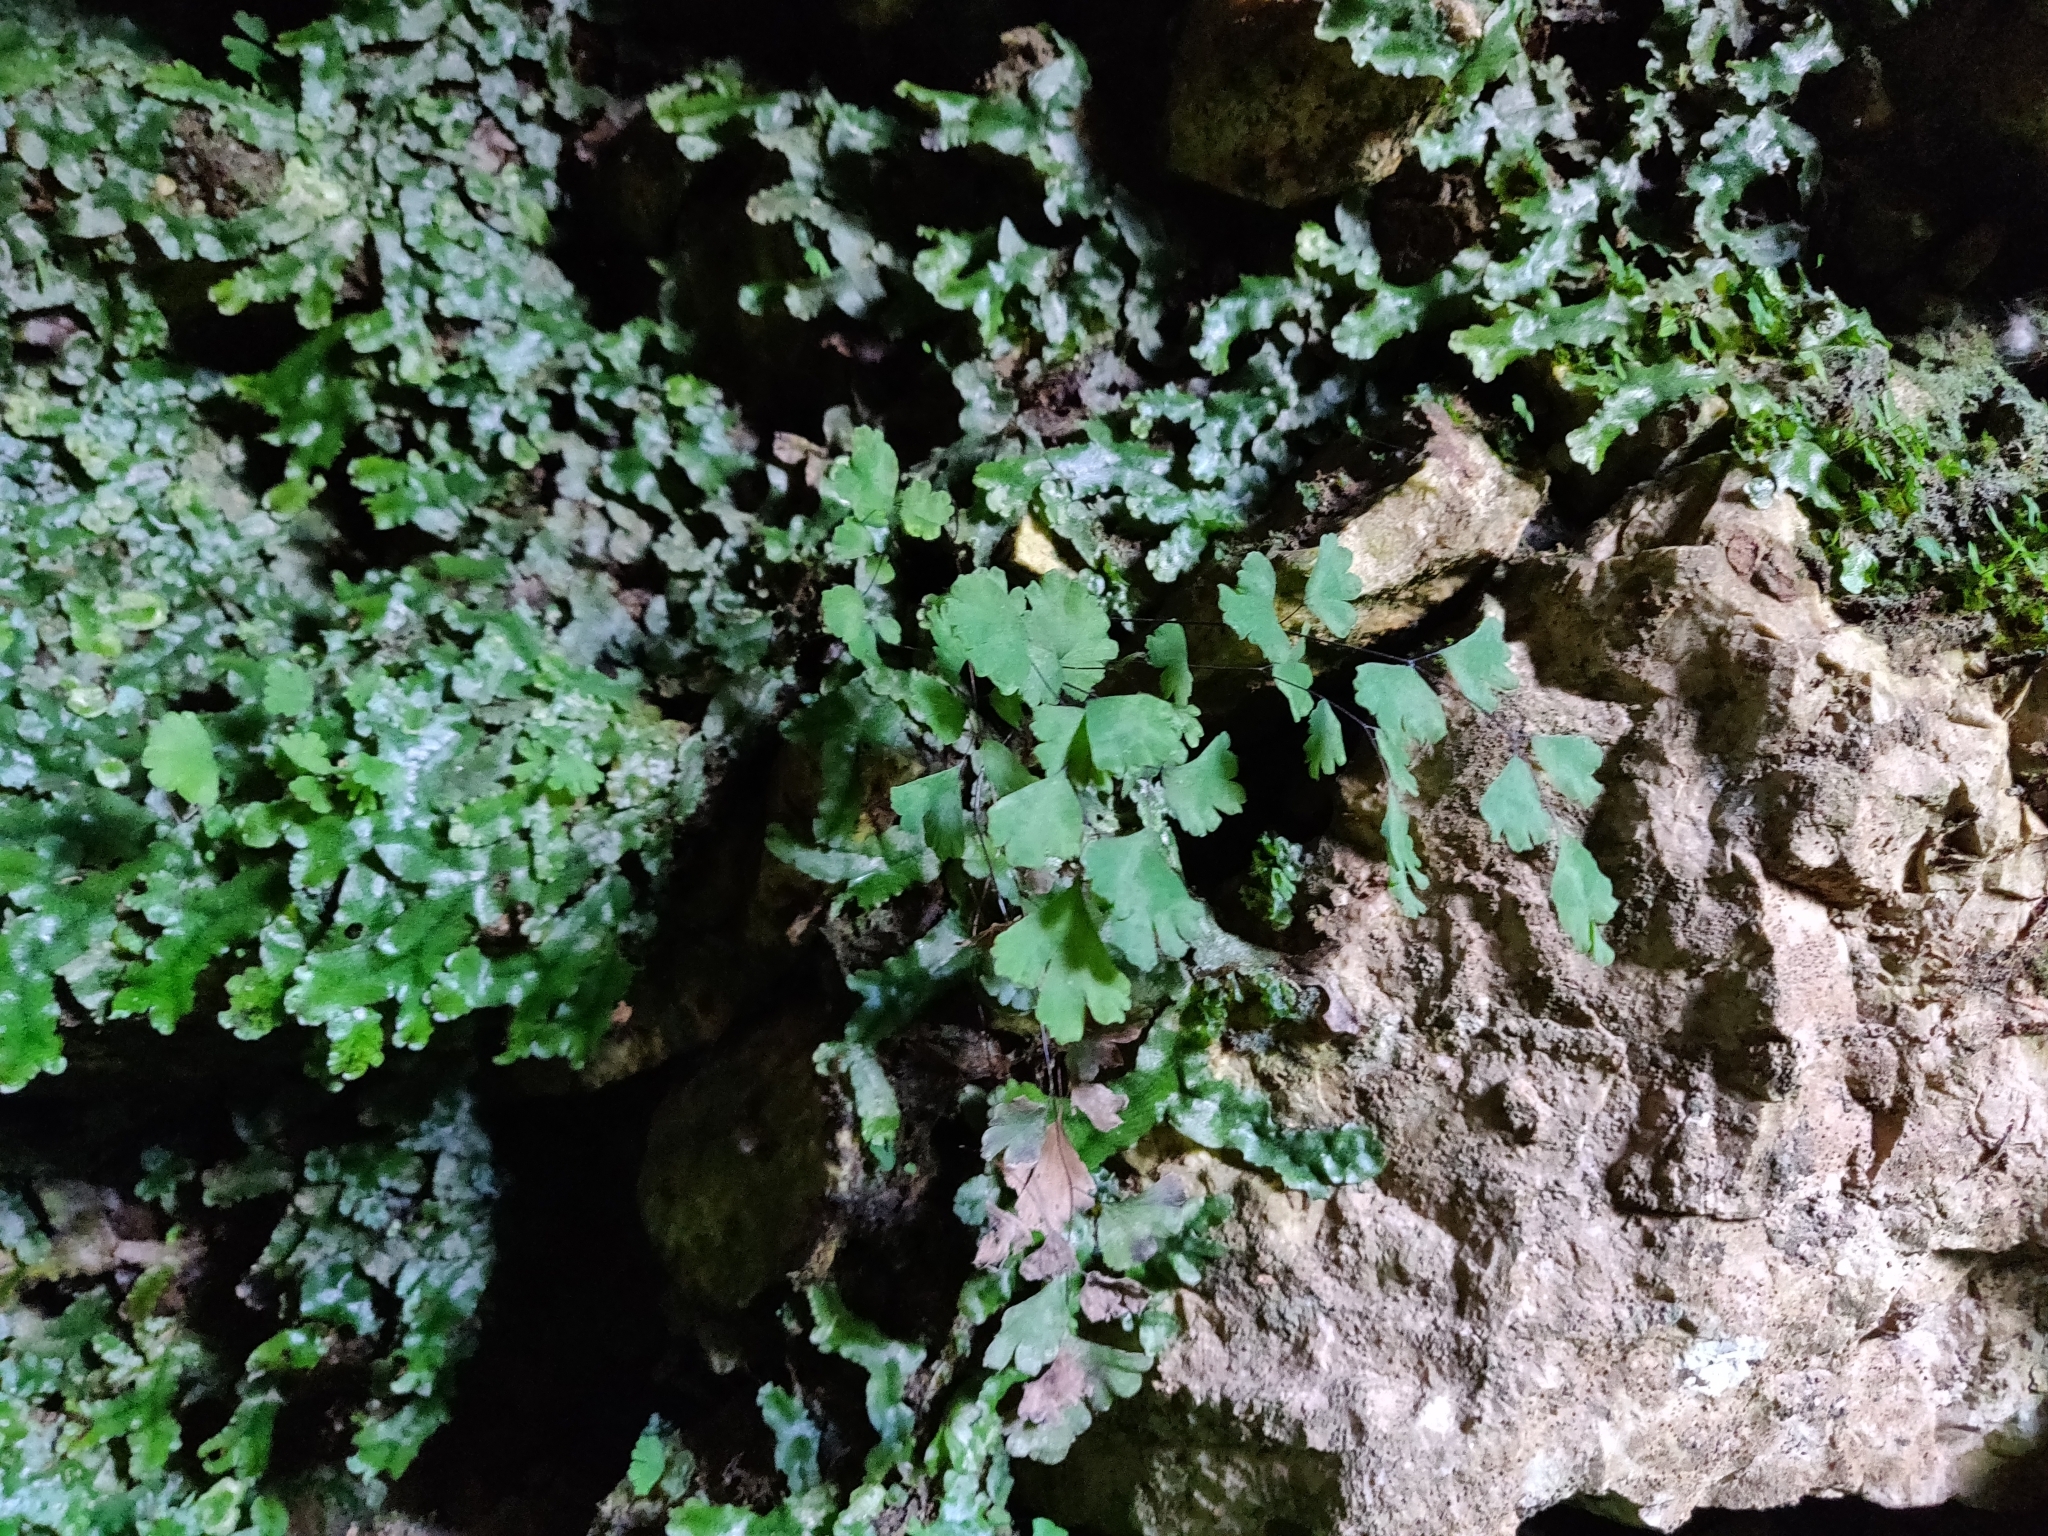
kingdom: Plantae
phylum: Tracheophyta
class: Polypodiopsida
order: Polypodiales
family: Pteridaceae
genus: Adiantum
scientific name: Adiantum capillus-veneris
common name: Maidenhair fern
